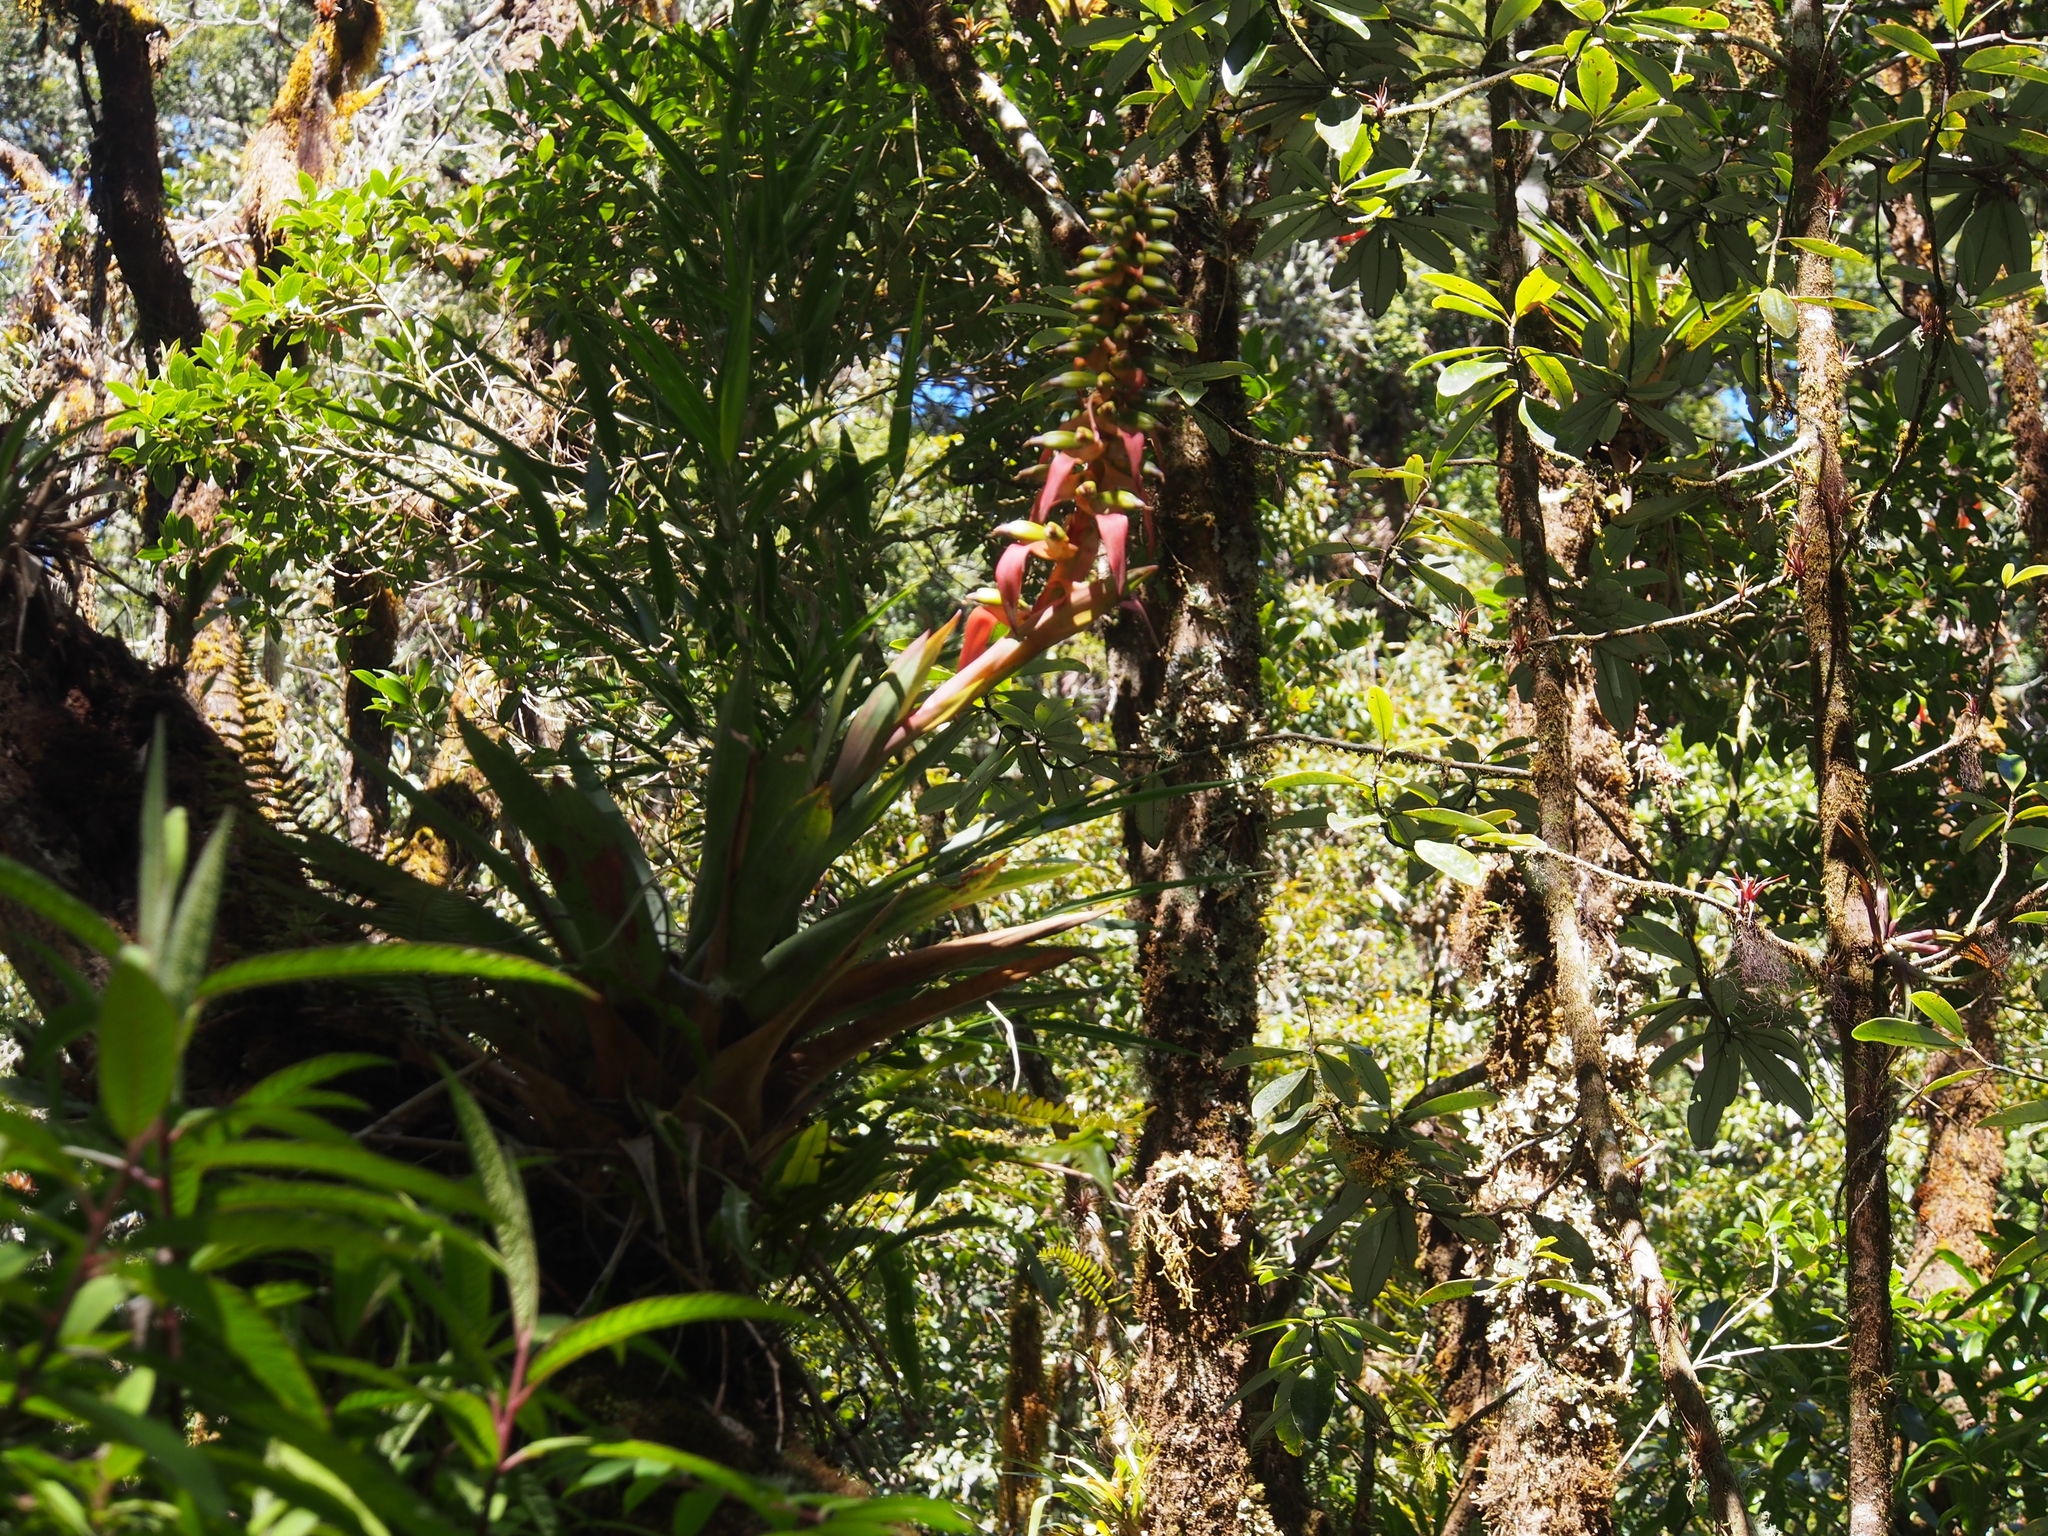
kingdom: Plantae
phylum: Tracheophyta
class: Liliopsida
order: Poales
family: Bromeliaceae
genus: Werauhia
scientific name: Werauhia ororiensis
